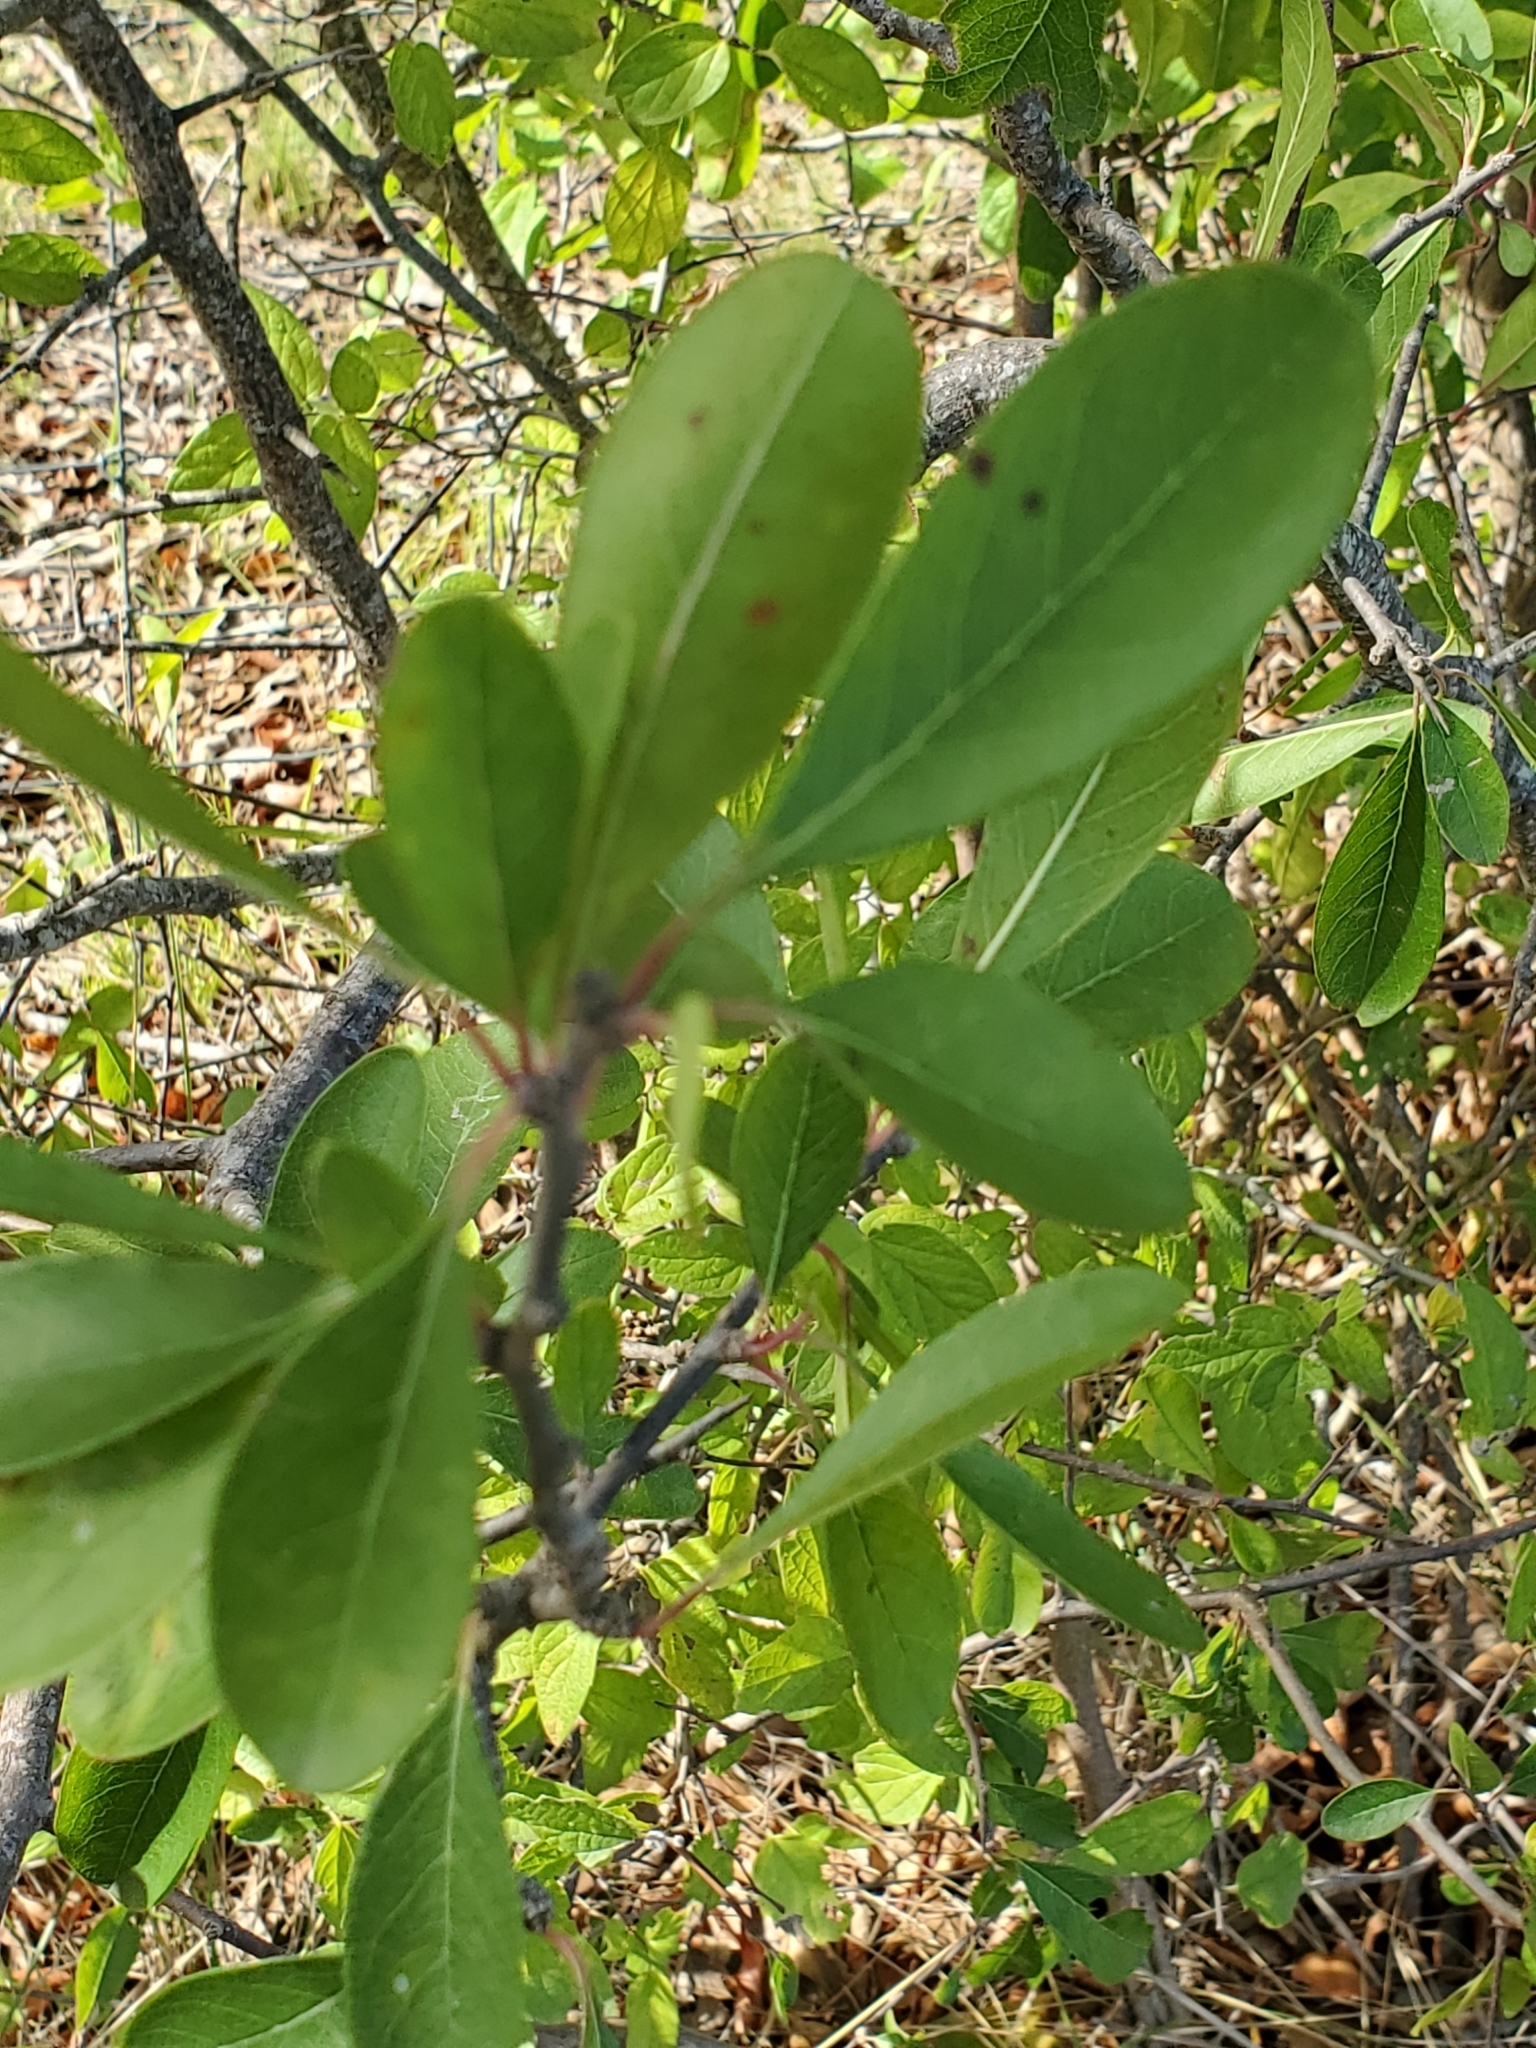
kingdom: Plantae
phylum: Tracheophyta
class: Magnoliopsida
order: Ericales
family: Sapotaceae
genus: Sideroxylon
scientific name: Sideroxylon lanuginosum
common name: Chittamwood
